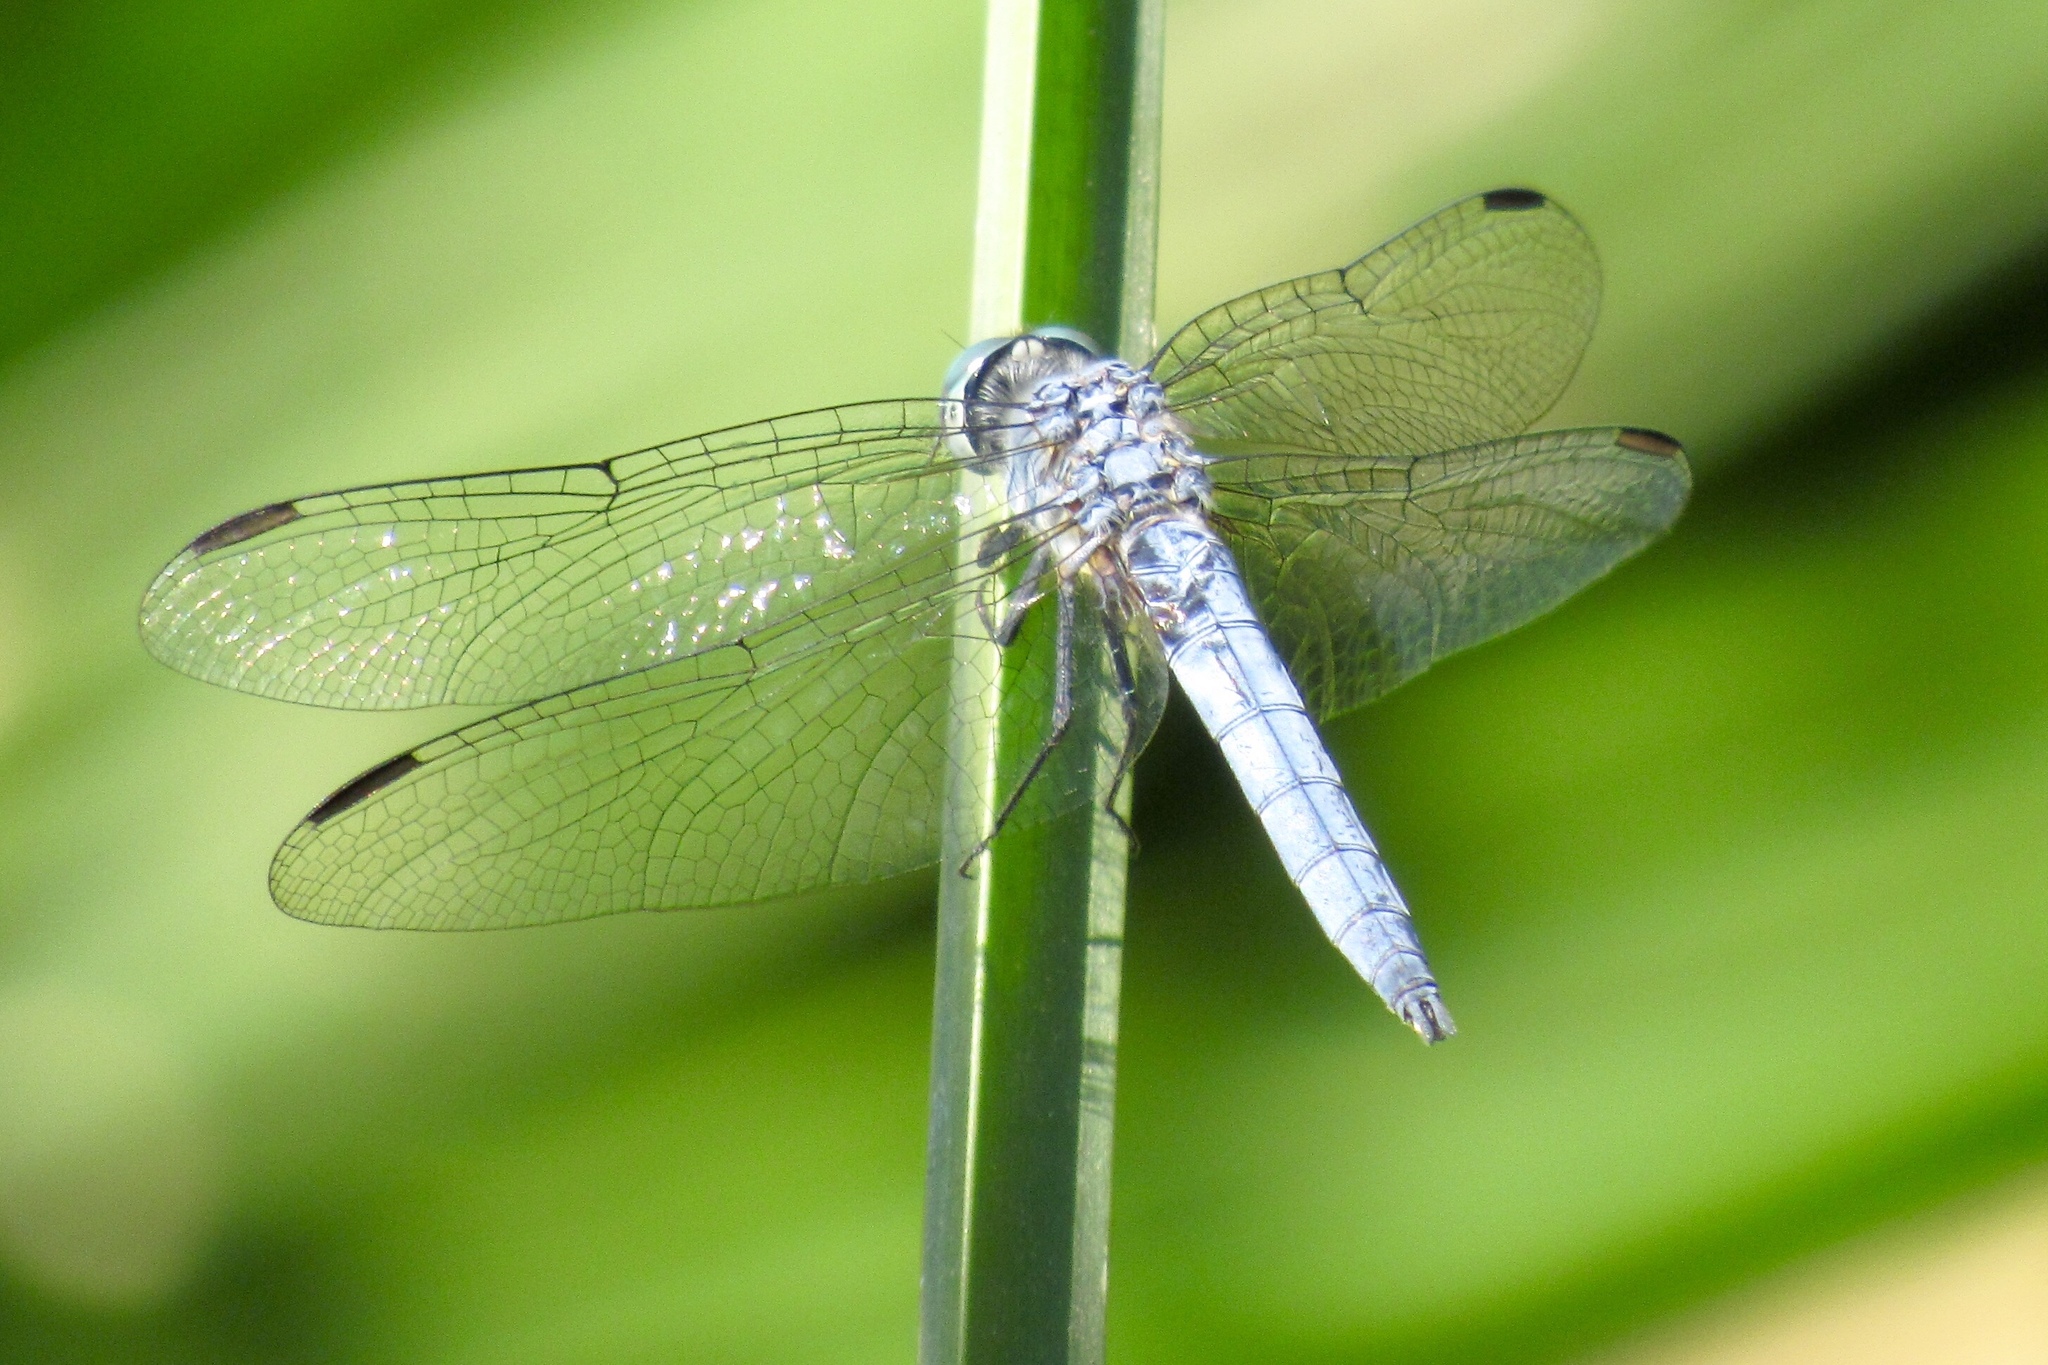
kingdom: Animalia
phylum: Arthropoda
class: Insecta
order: Odonata
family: Libellulidae
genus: Pachydiplax
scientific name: Pachydiplax longipennis
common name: Blue dasher
